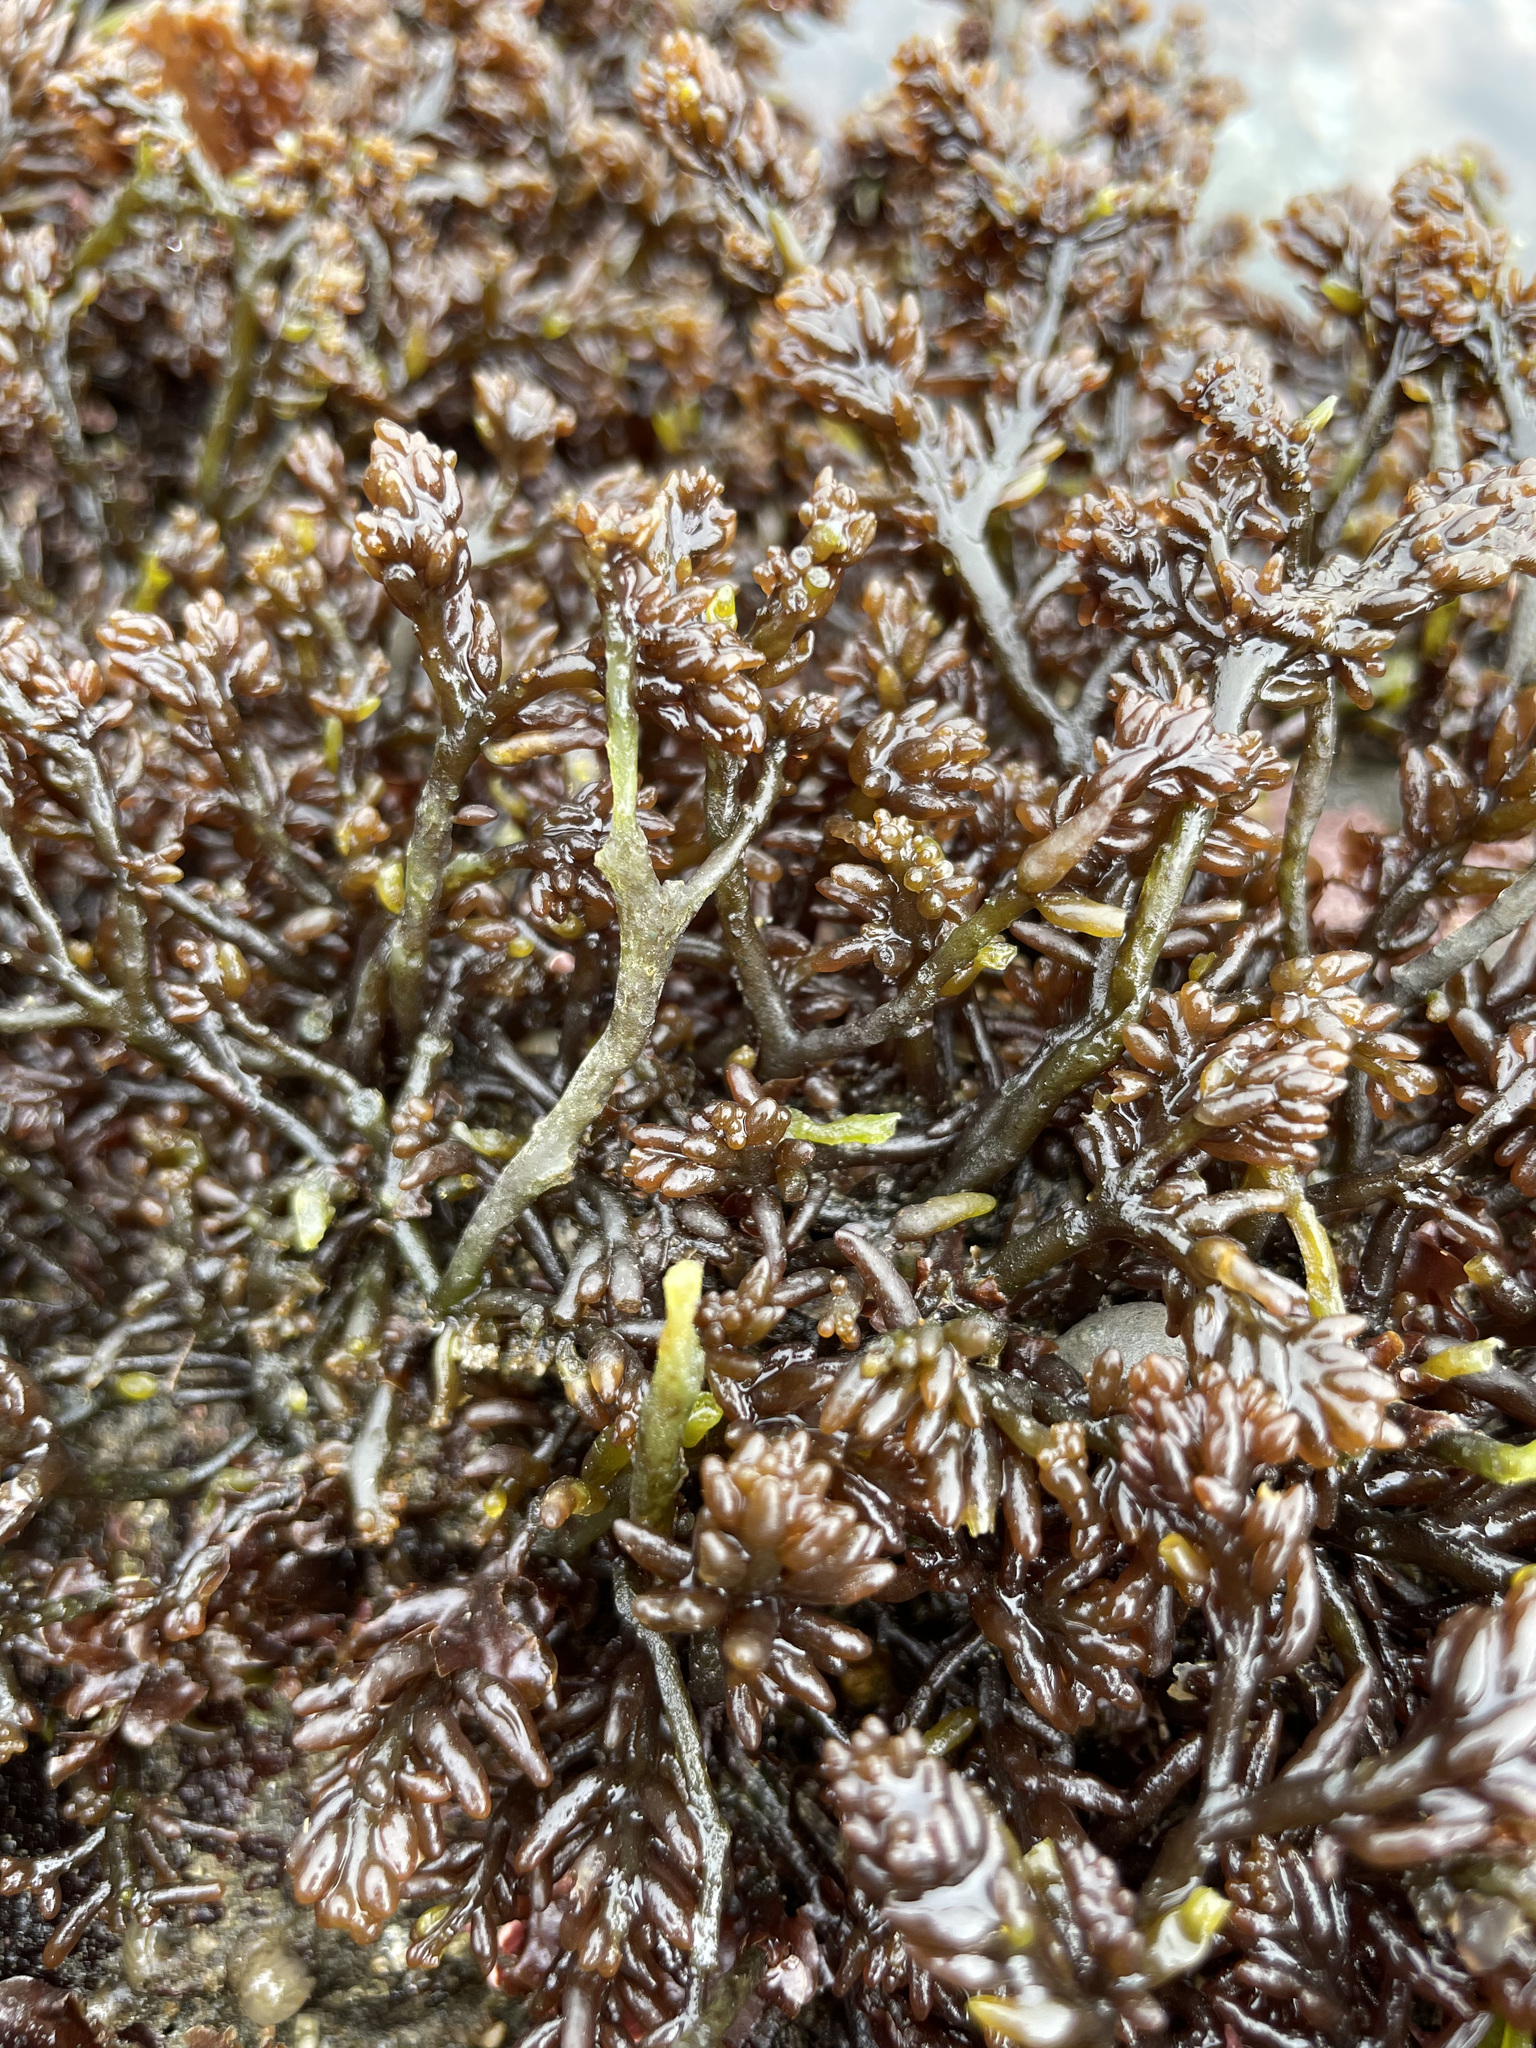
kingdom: Plantae
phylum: Rhodophyta
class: Florideophyceae
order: Rhodymeniales
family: Champiaceae
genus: Neogastroclonium
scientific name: Neogastroclonium subarticulatum
